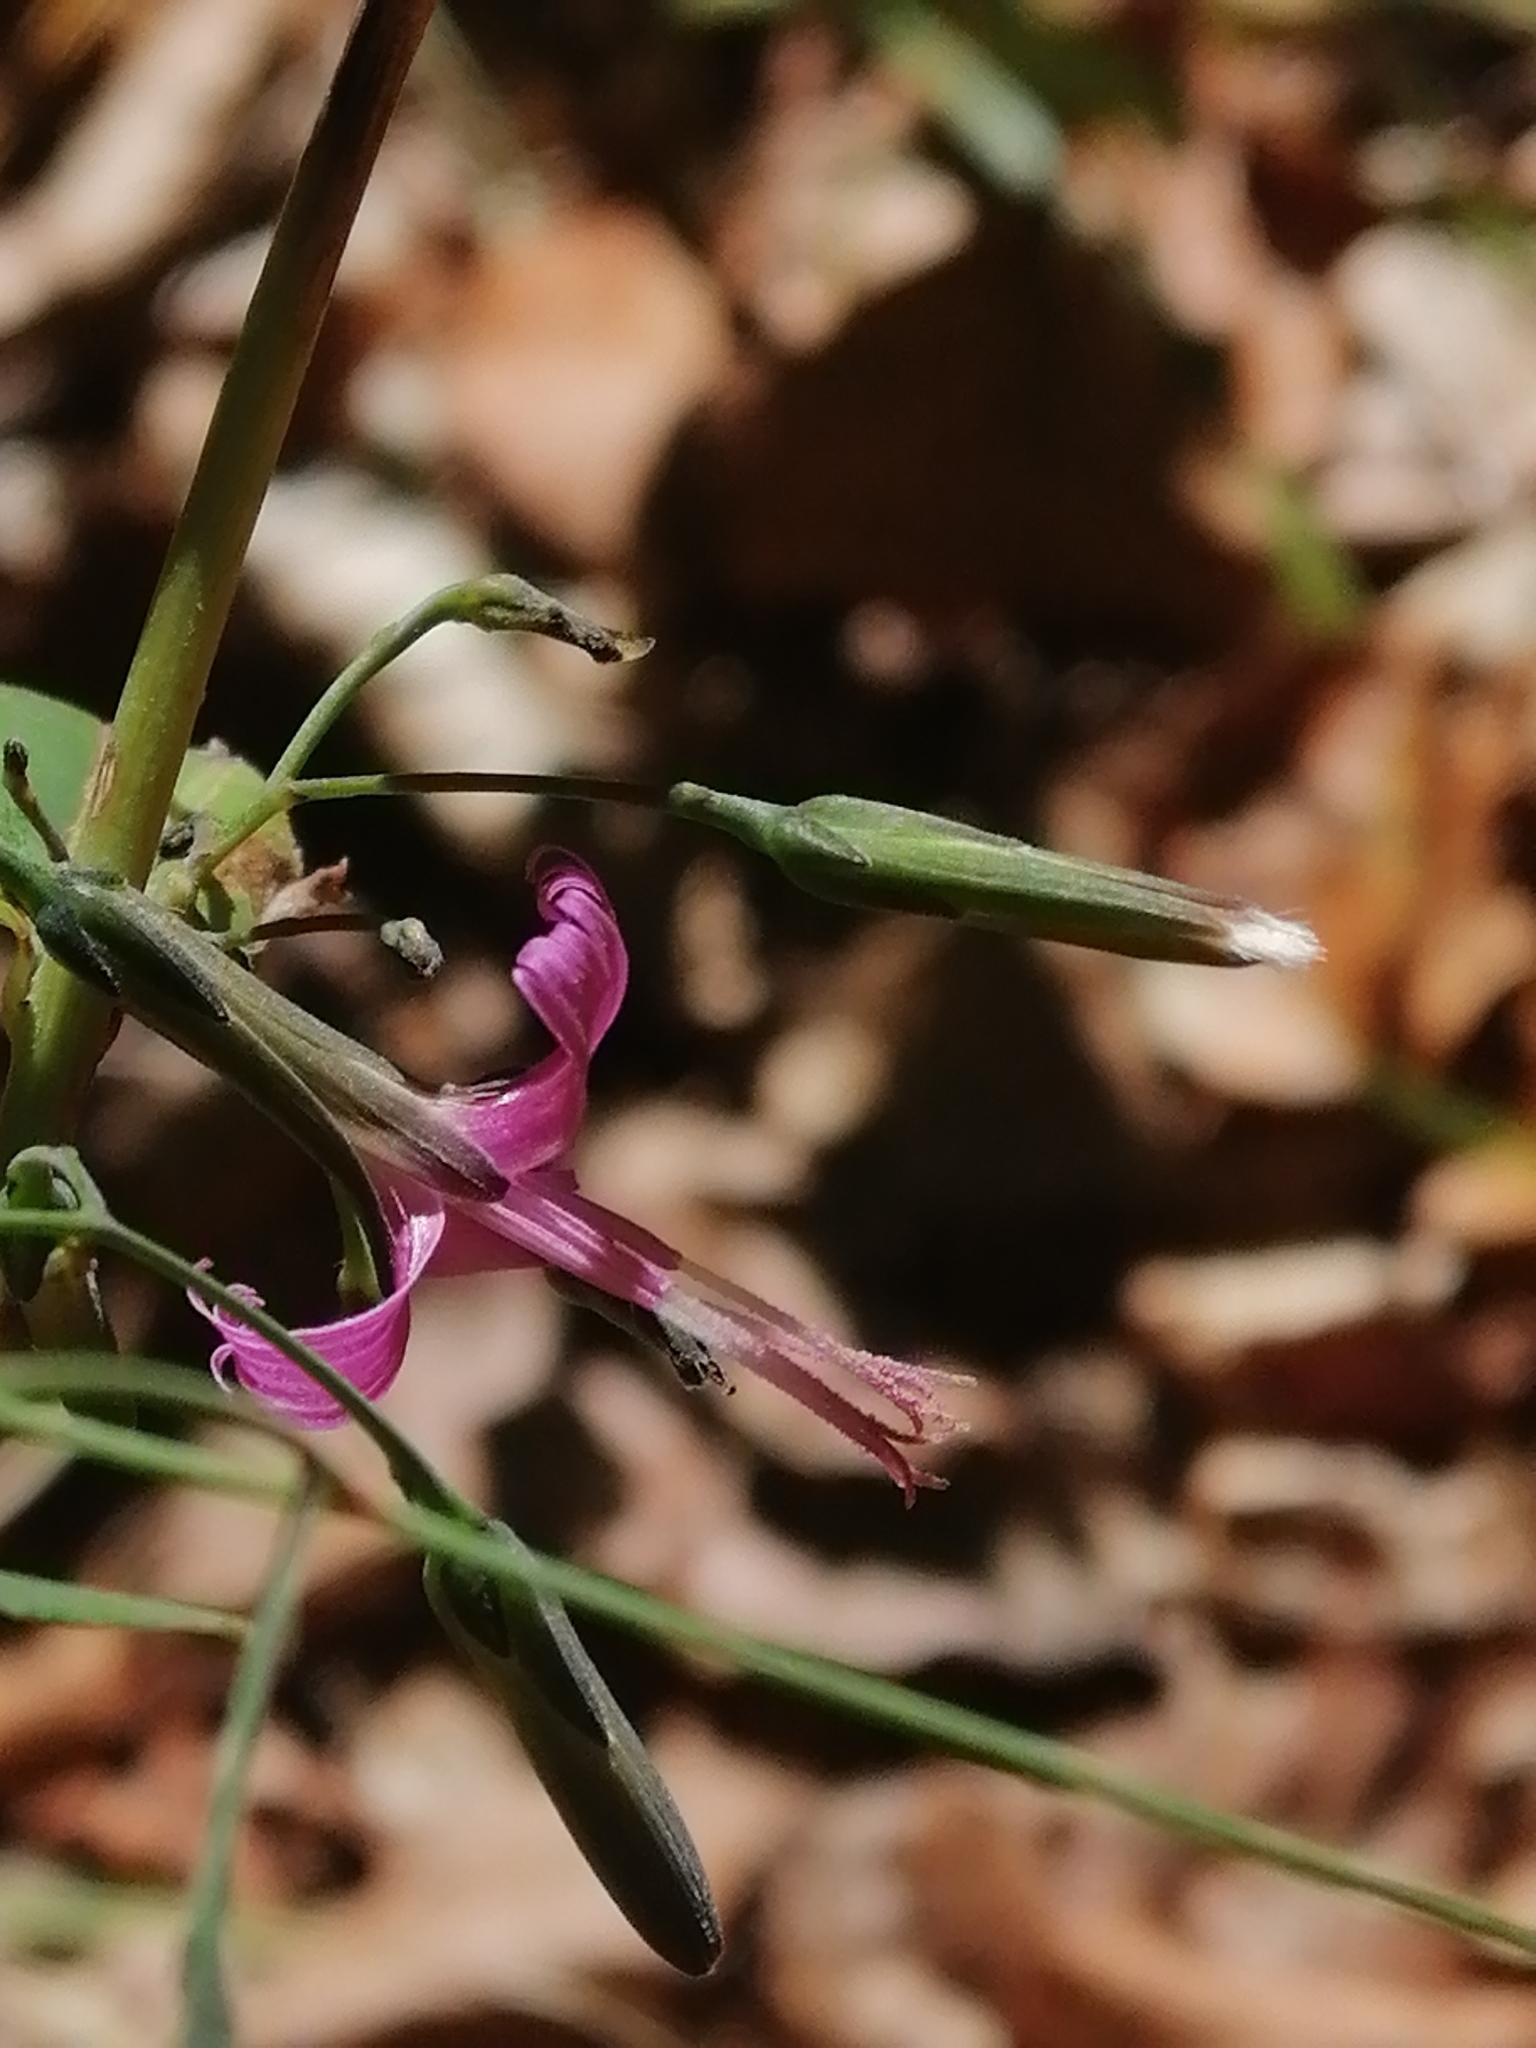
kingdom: Plantae
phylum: Tracheophyta
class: Magnoliopsida
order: Asterales
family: Asteraceae
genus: Prenanthes
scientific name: Prenanthes purpurea
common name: Purple lettuce
